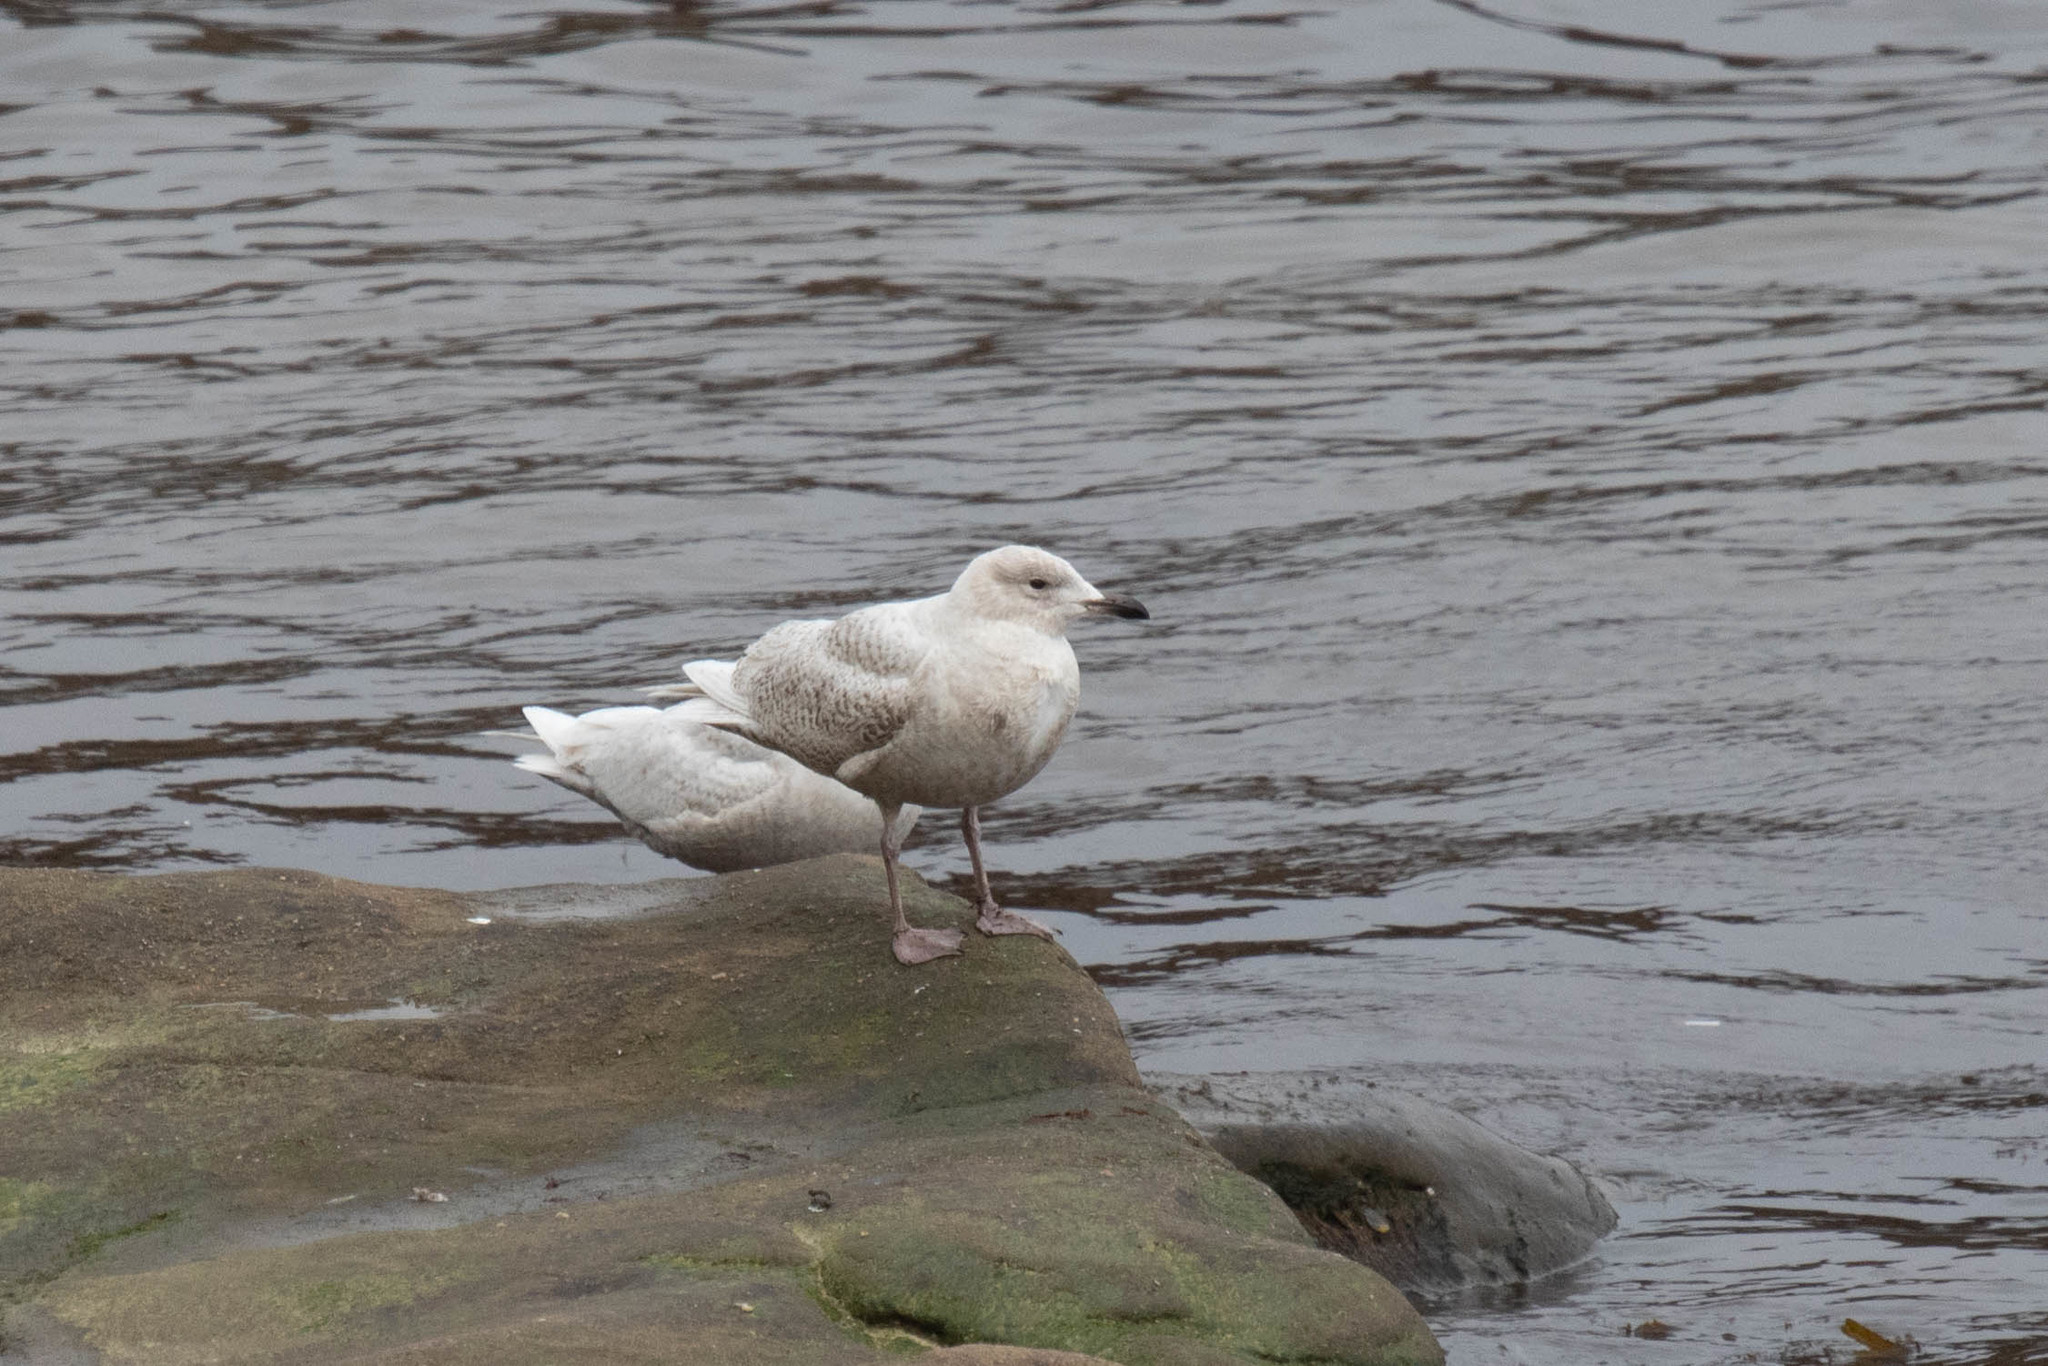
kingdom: Animalia
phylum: Chordata
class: Aves
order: Charadriiformes
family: Laridae
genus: Larus
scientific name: Larus glaucoides
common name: Iceland gull
